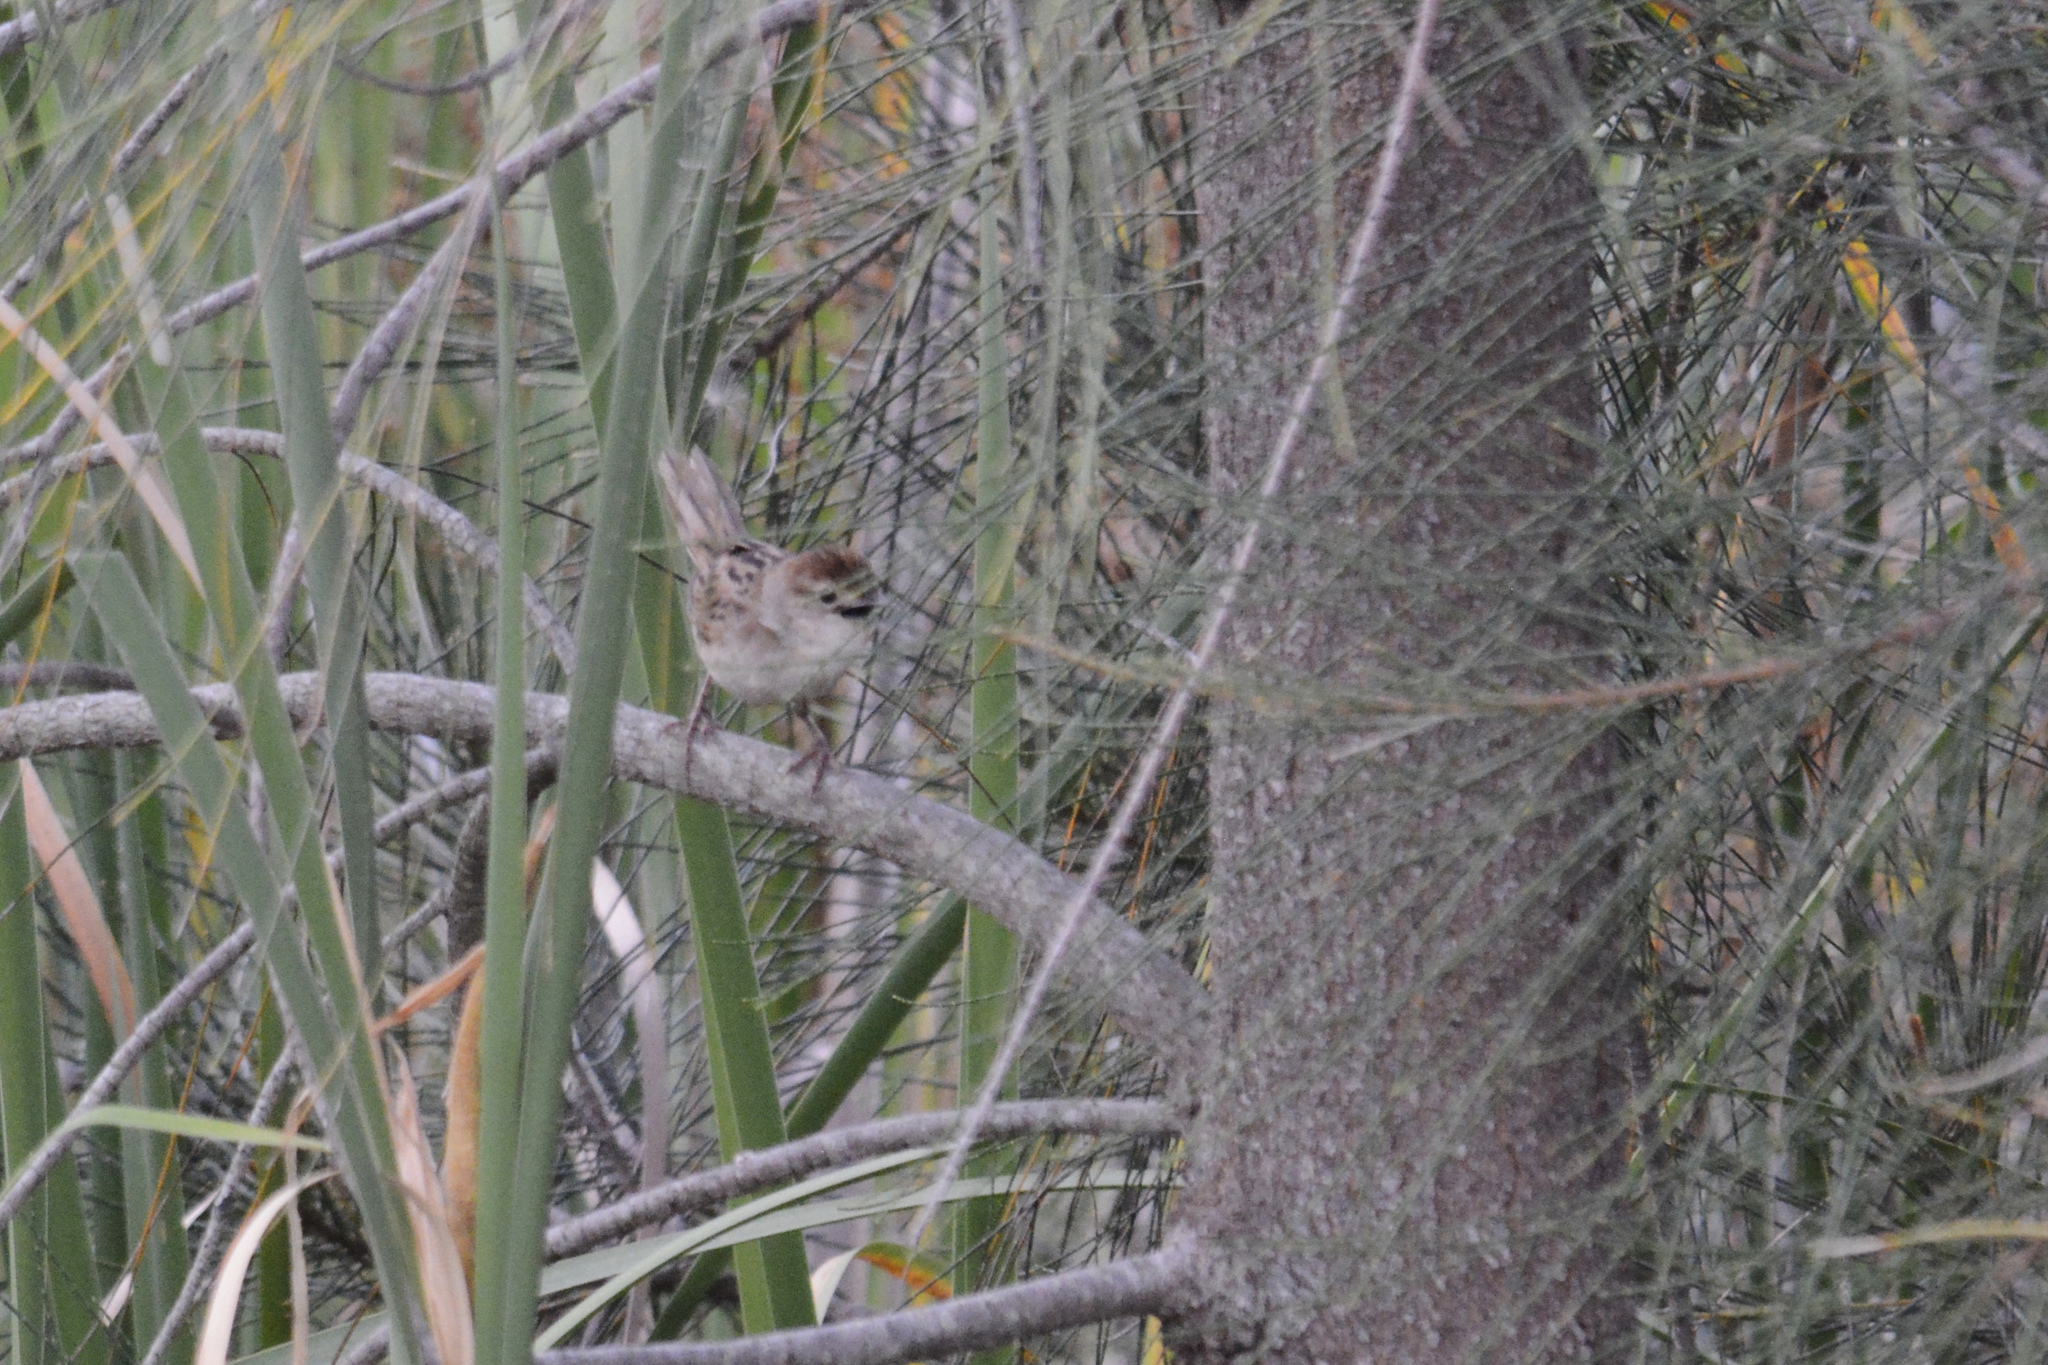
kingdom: Animalia
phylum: Chordata
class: Aves
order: Passeriformes
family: Locustellidae
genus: Megalurus
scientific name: Megalurus timoriensis
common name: Tawny grassbird
